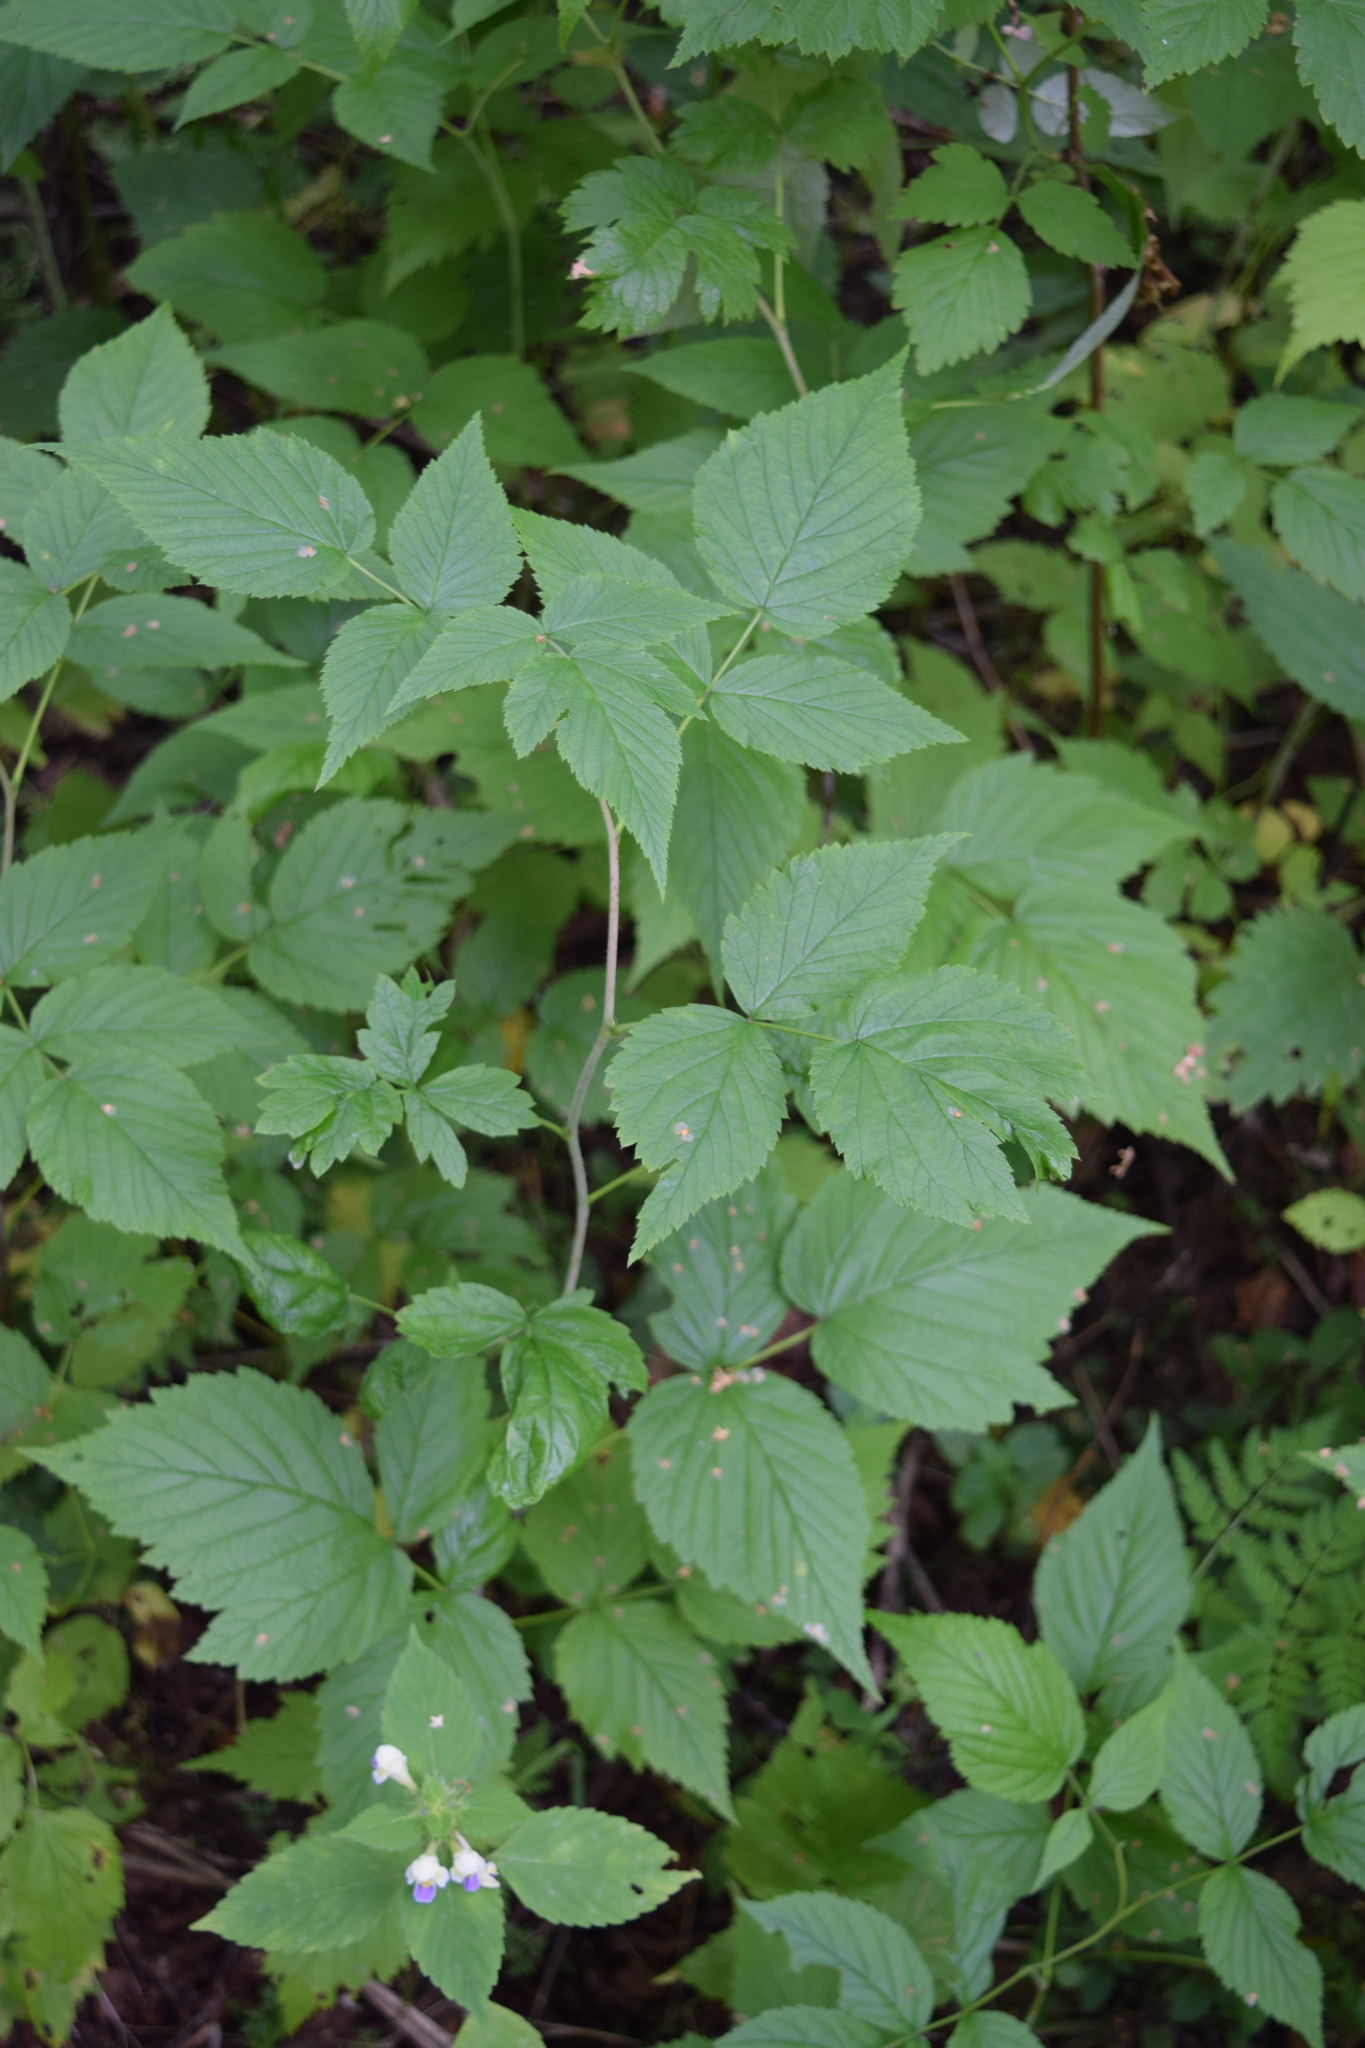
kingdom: Plantae
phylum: Tracheophyta
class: Magnoliopsida
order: Rosales
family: Rosaceae
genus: Rubus
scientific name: Rubus idaeus
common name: Raspberry
